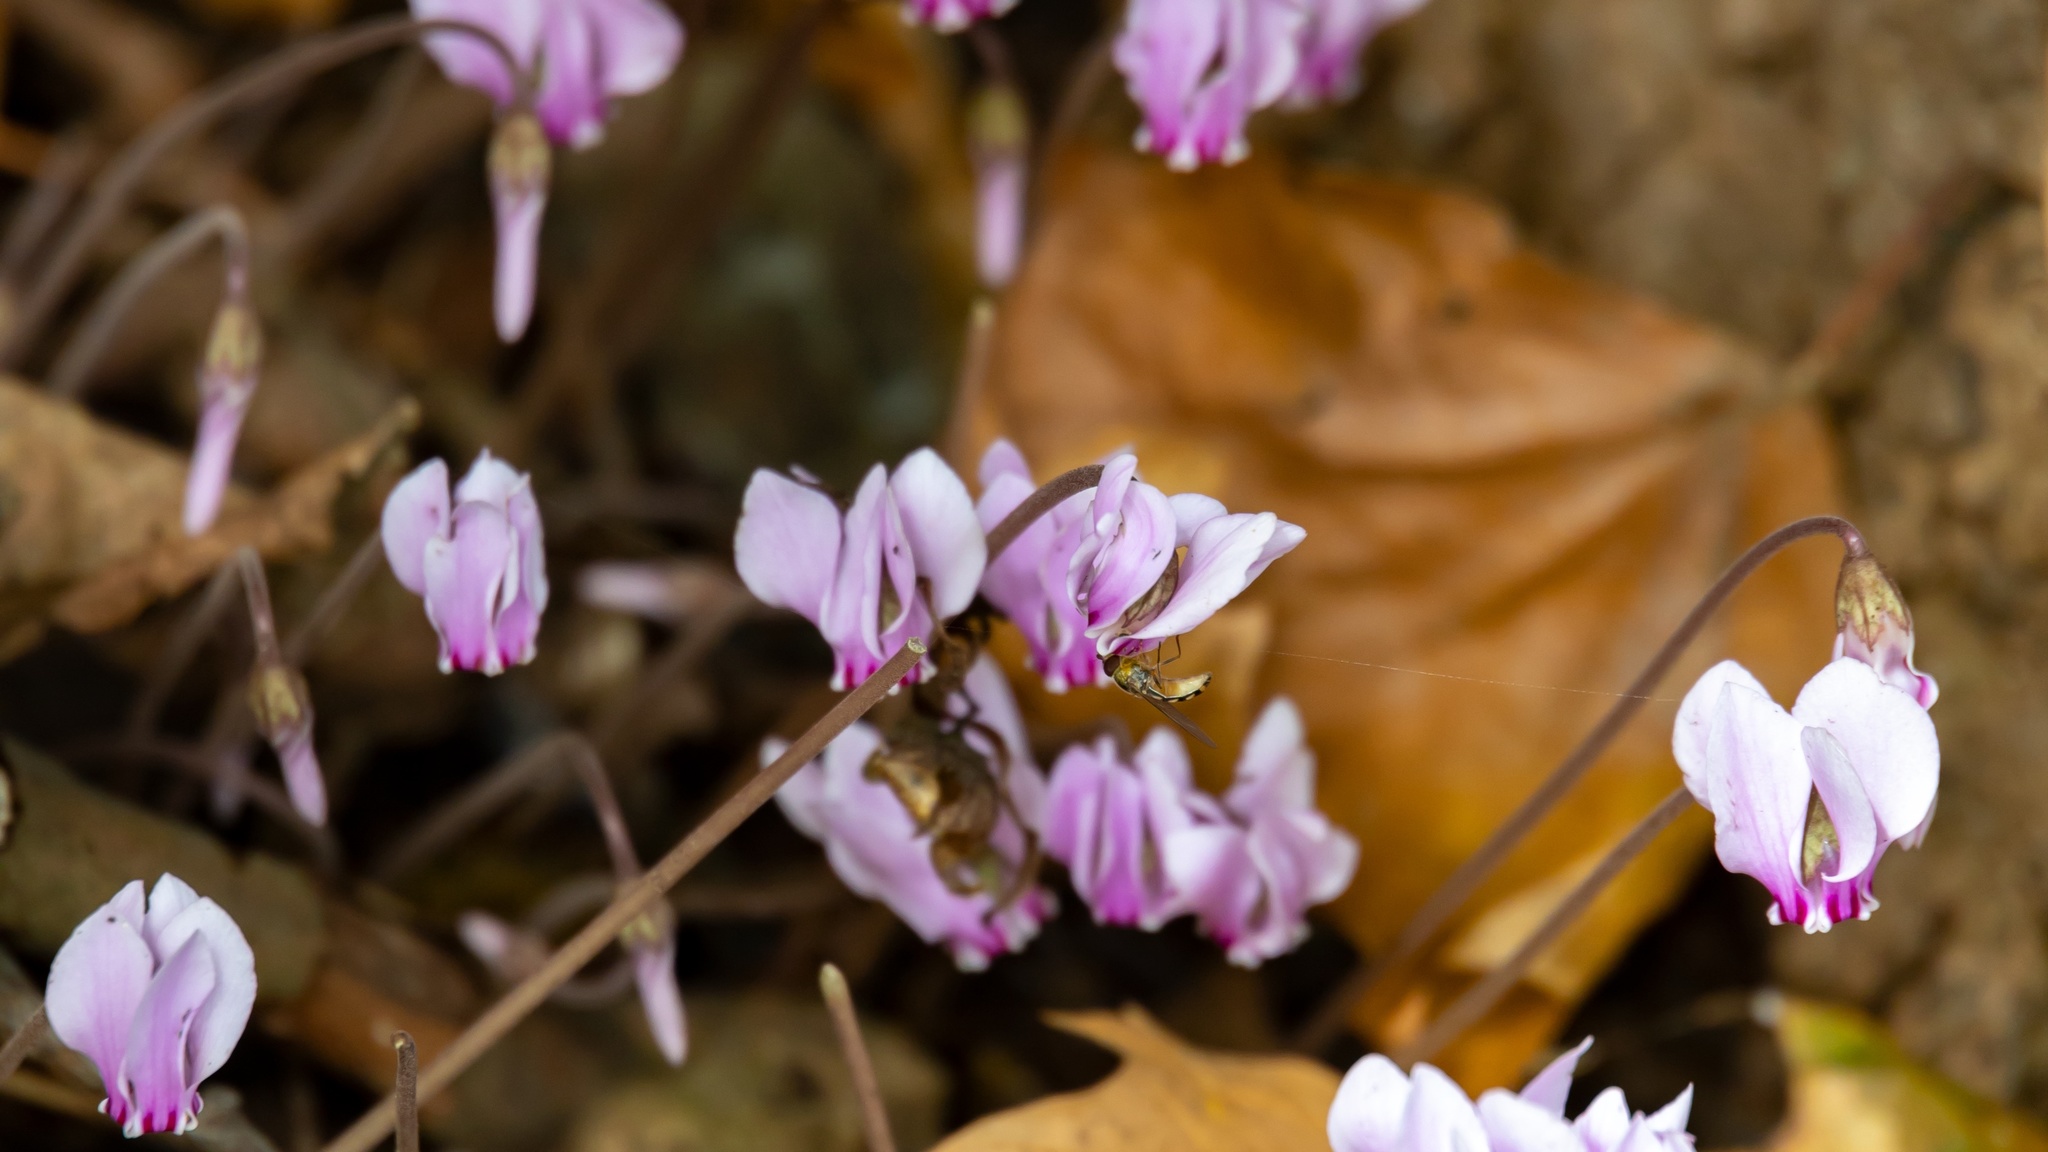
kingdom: Plantae
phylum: Tracheophyta
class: Magnoliopsida
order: Ericales
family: Primulaceae
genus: Cyclamen
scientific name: Cyclamen hederifolium
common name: Sowbread
